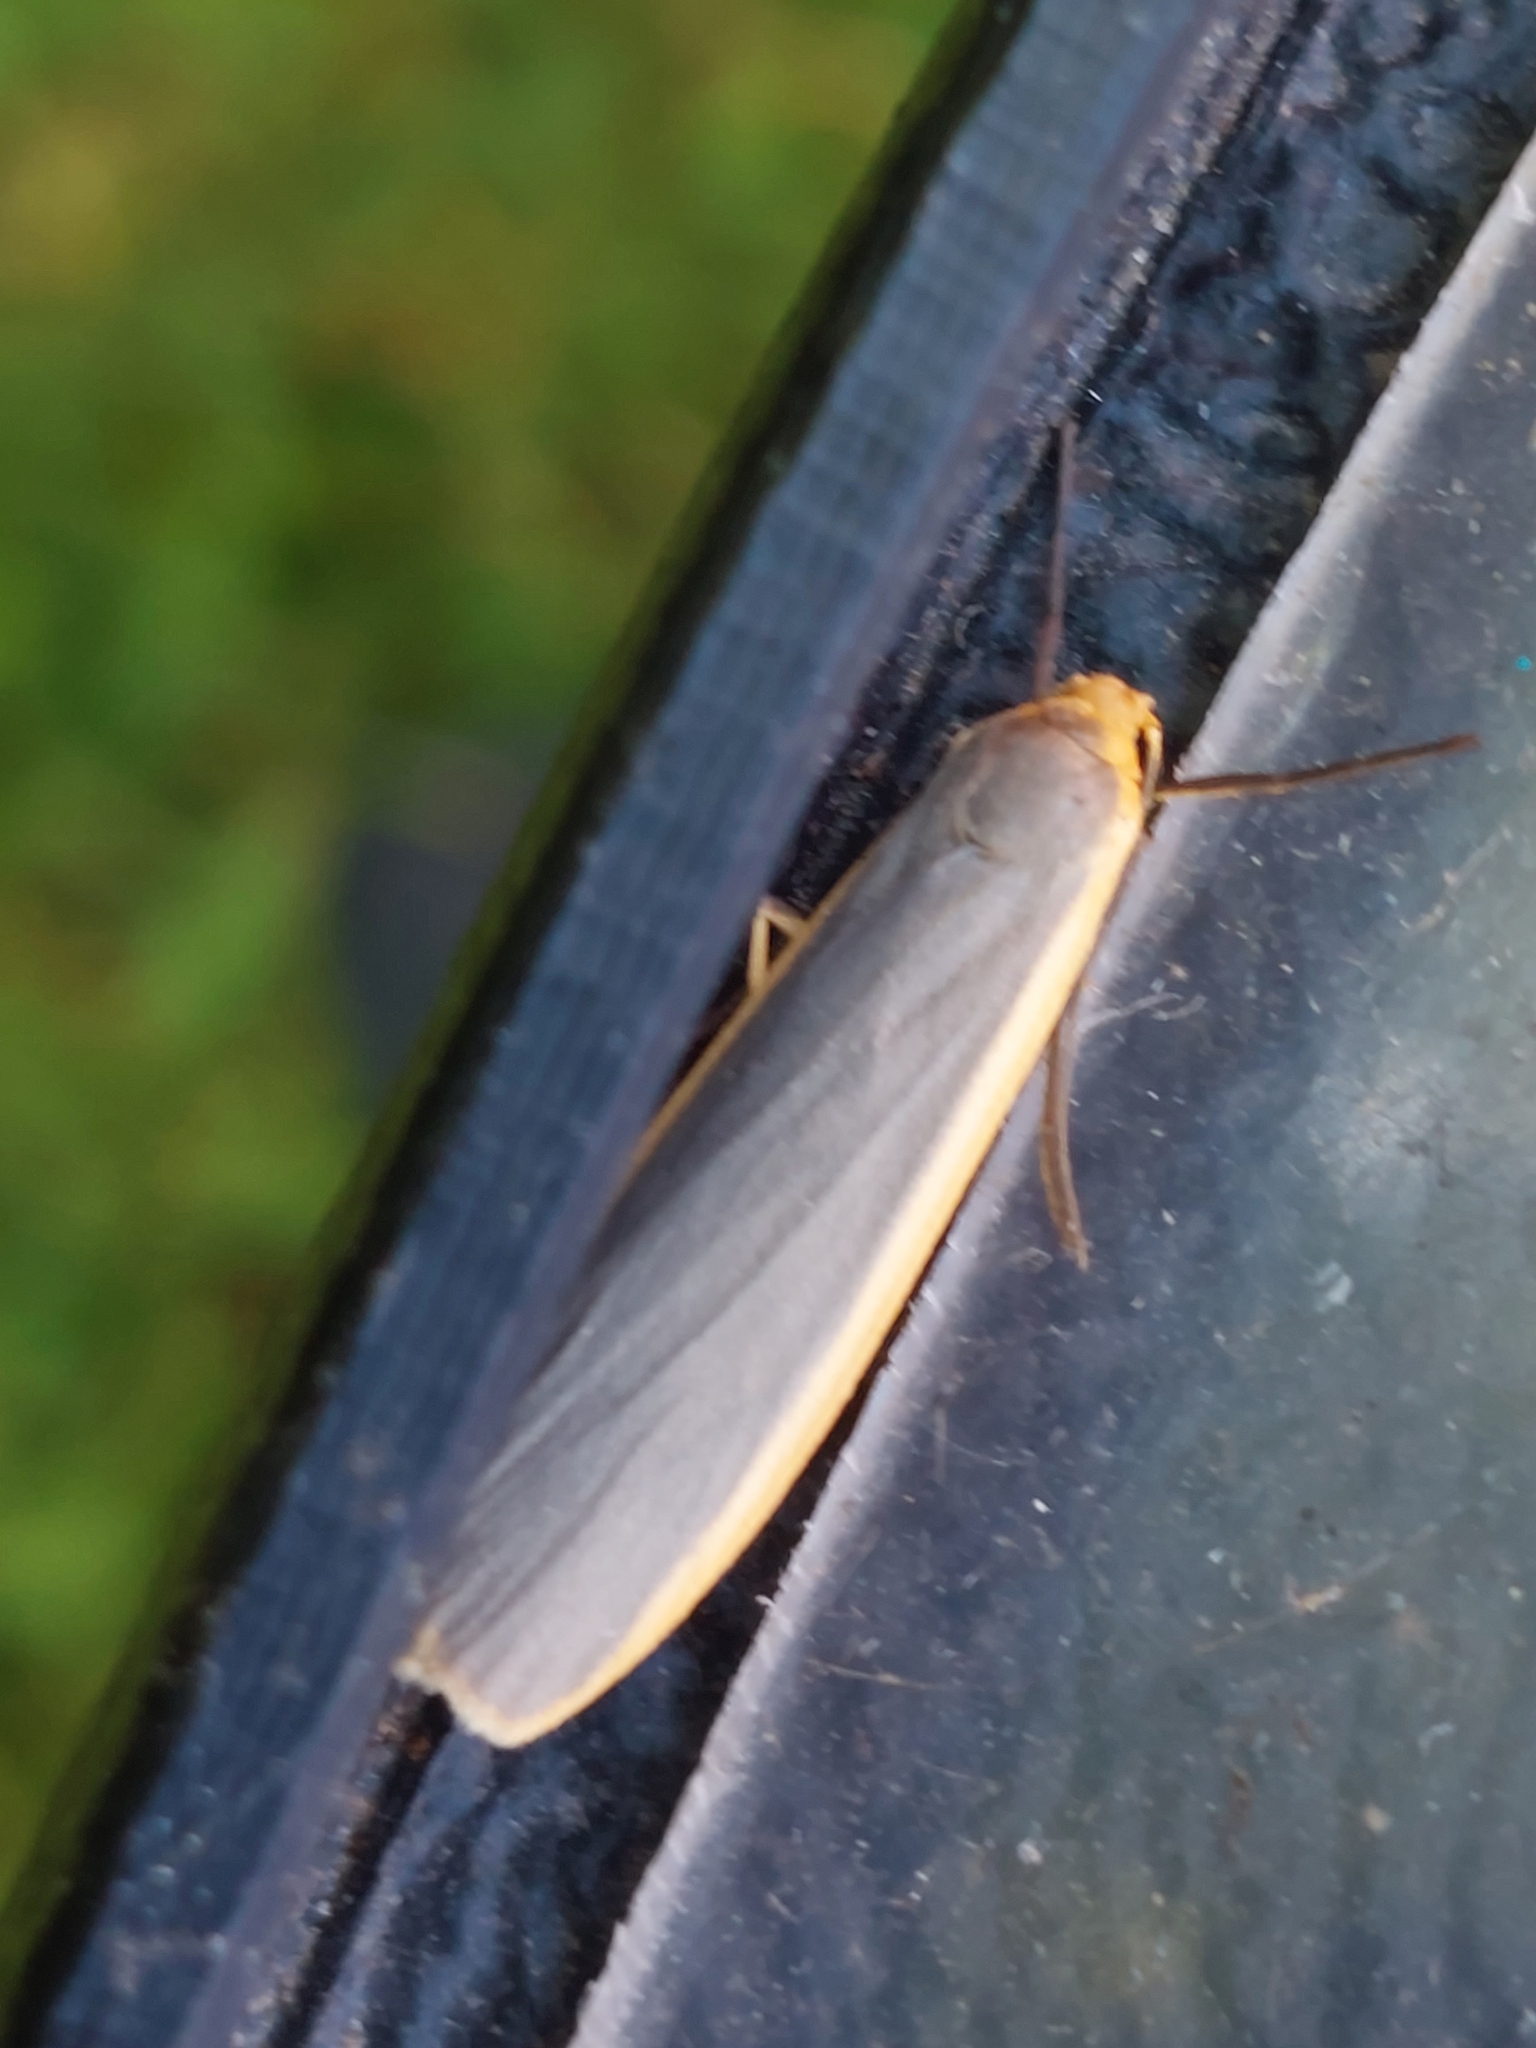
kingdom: Animalia
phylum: Arthropoda
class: Insecta
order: Lepidoptera
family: Erebidae
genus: Nyea
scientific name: Nyea lurideola
